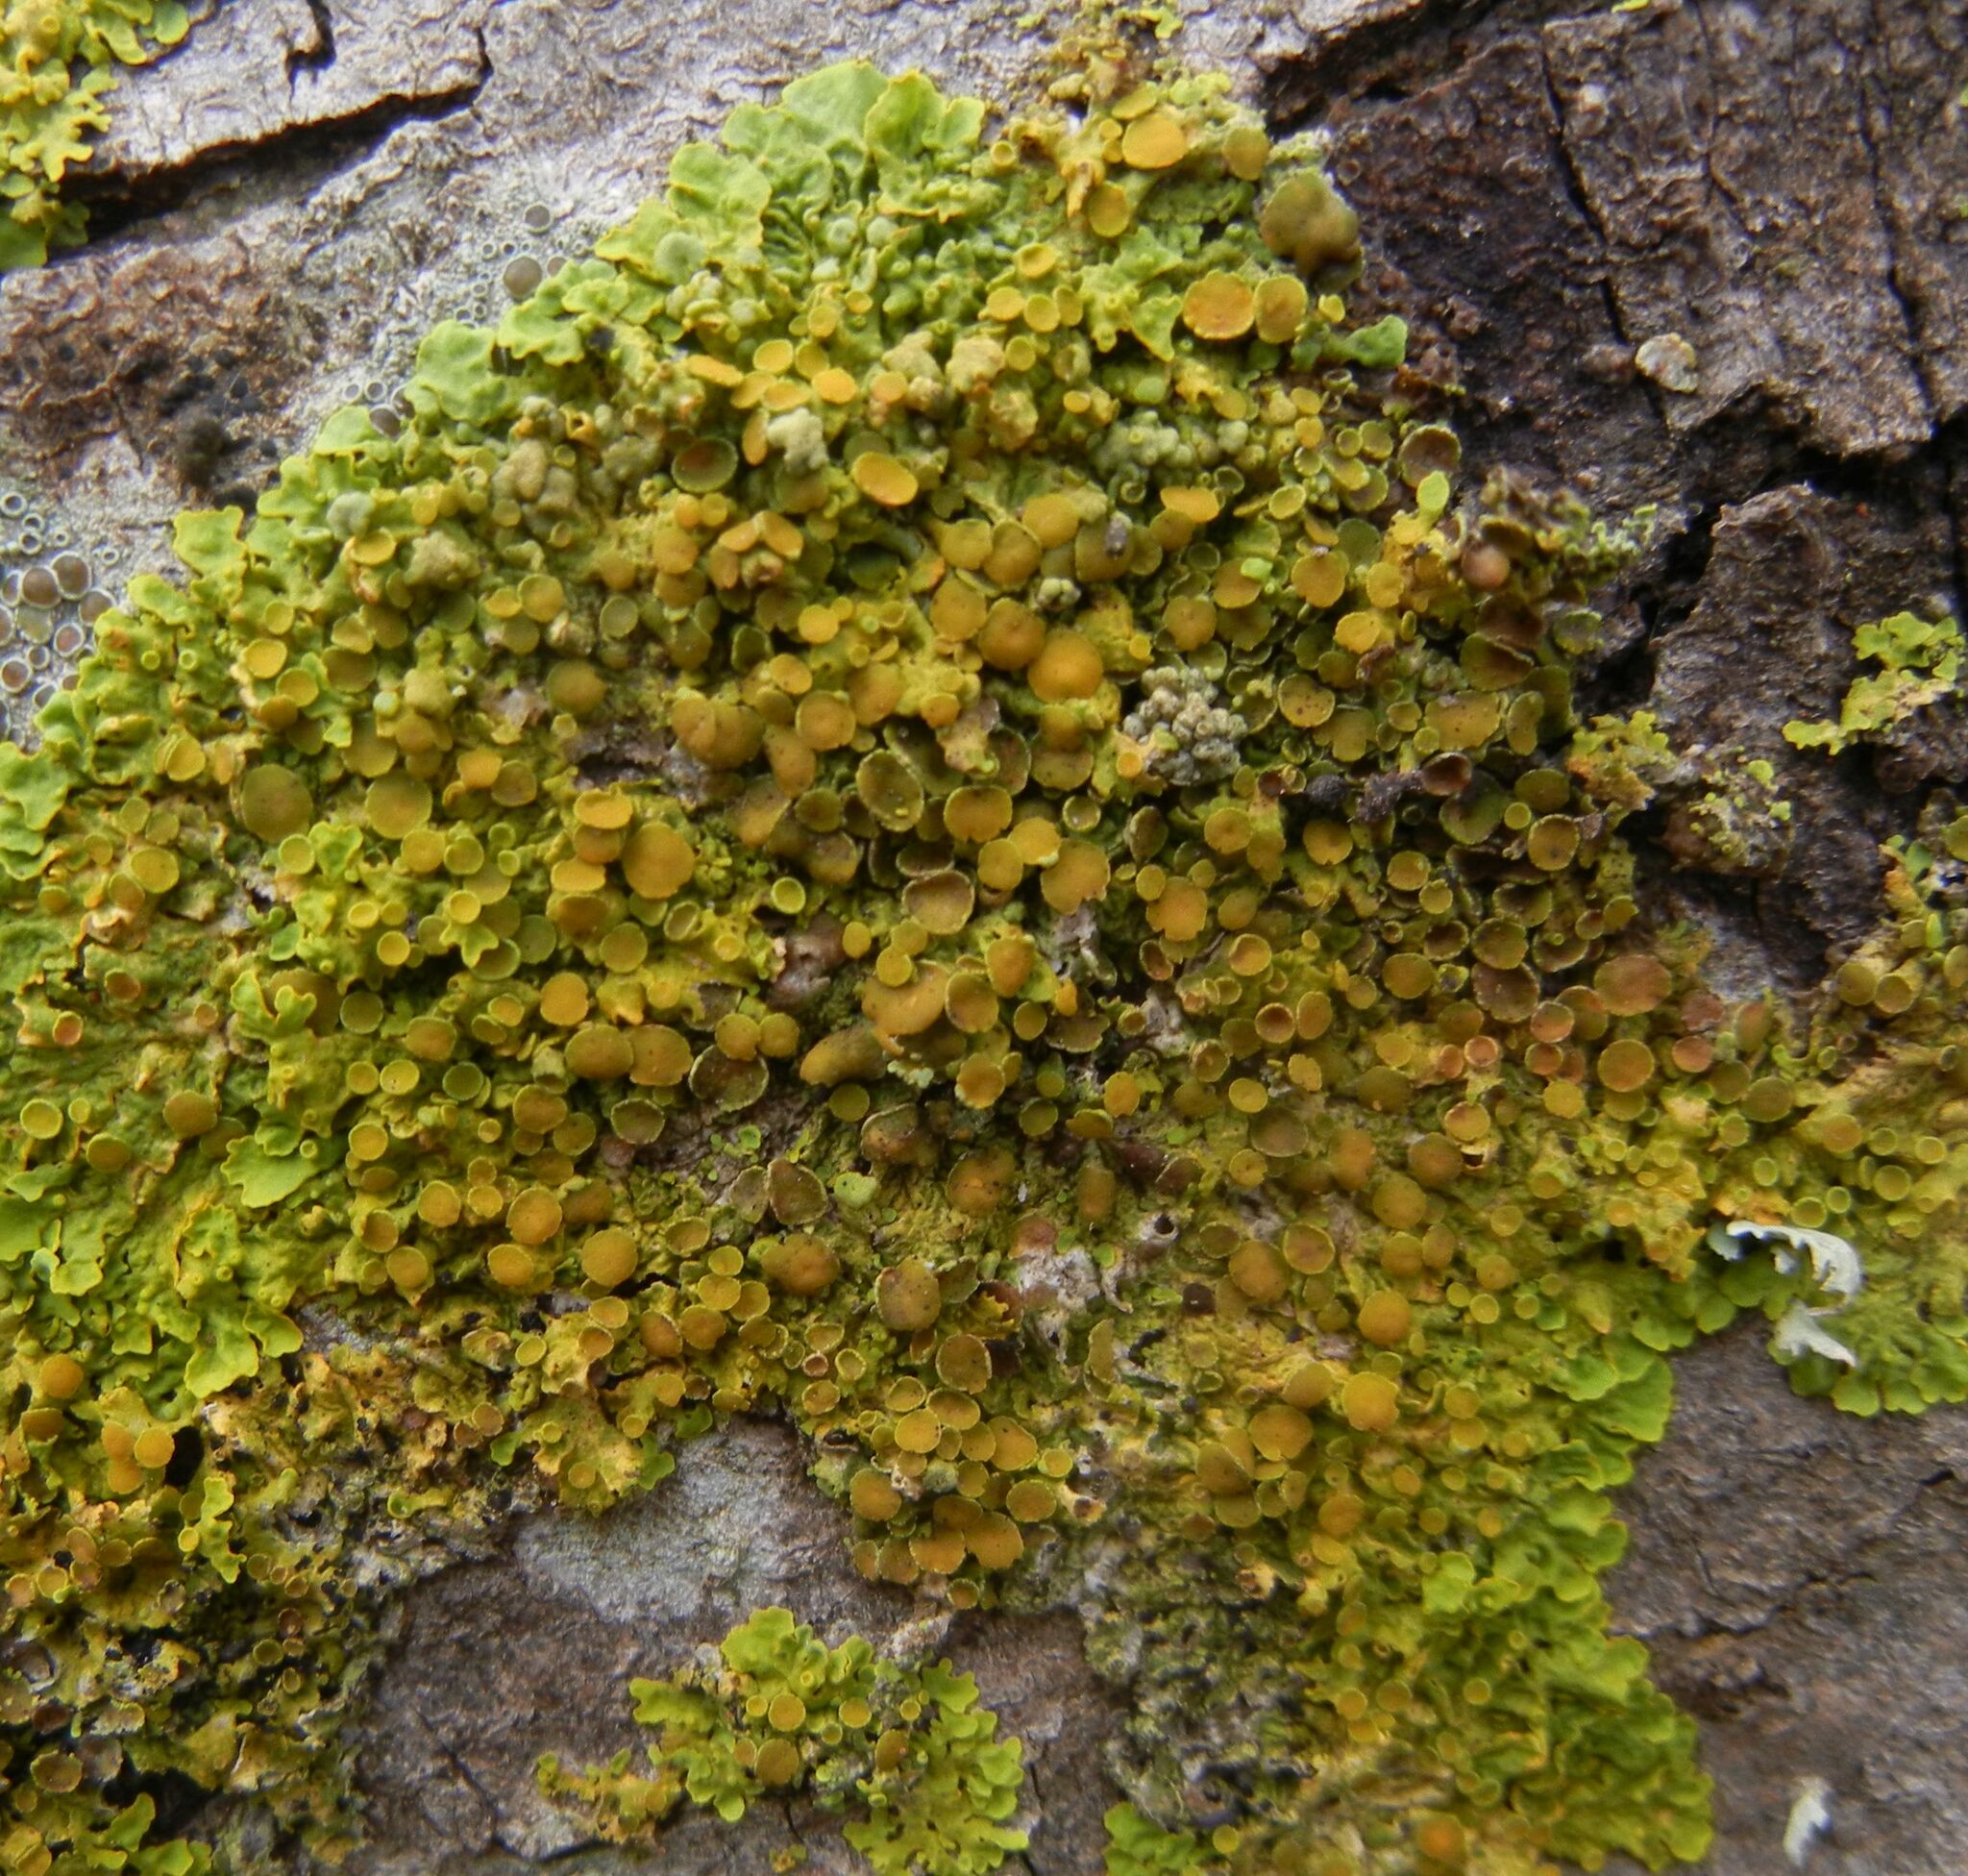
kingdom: Fungi
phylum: Ascomycota
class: Lecanoromycetes
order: Teloschistales
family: Teloschistaceae
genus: Xanthoria
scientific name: Xanthoria parietina
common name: Common orange lichen
